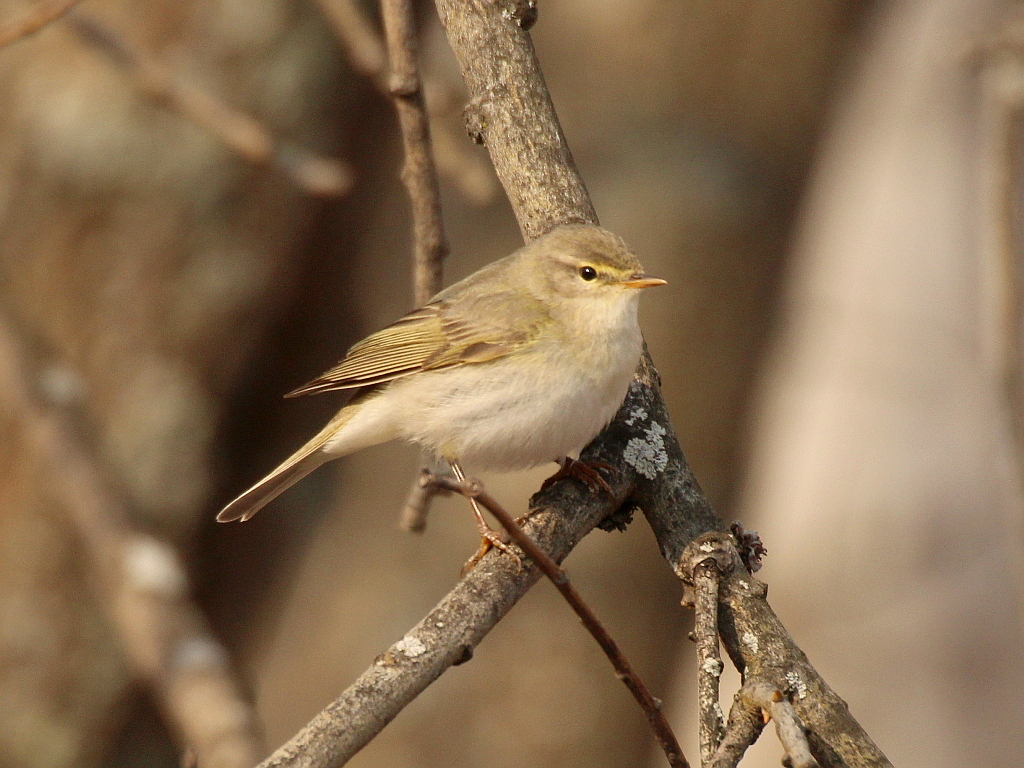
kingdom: Animalia
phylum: Chordata
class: Aves
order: Passeriformes
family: Phylloscopidae
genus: Phylloscopus
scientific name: Phylloscopus trochilus
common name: Willow warbler
